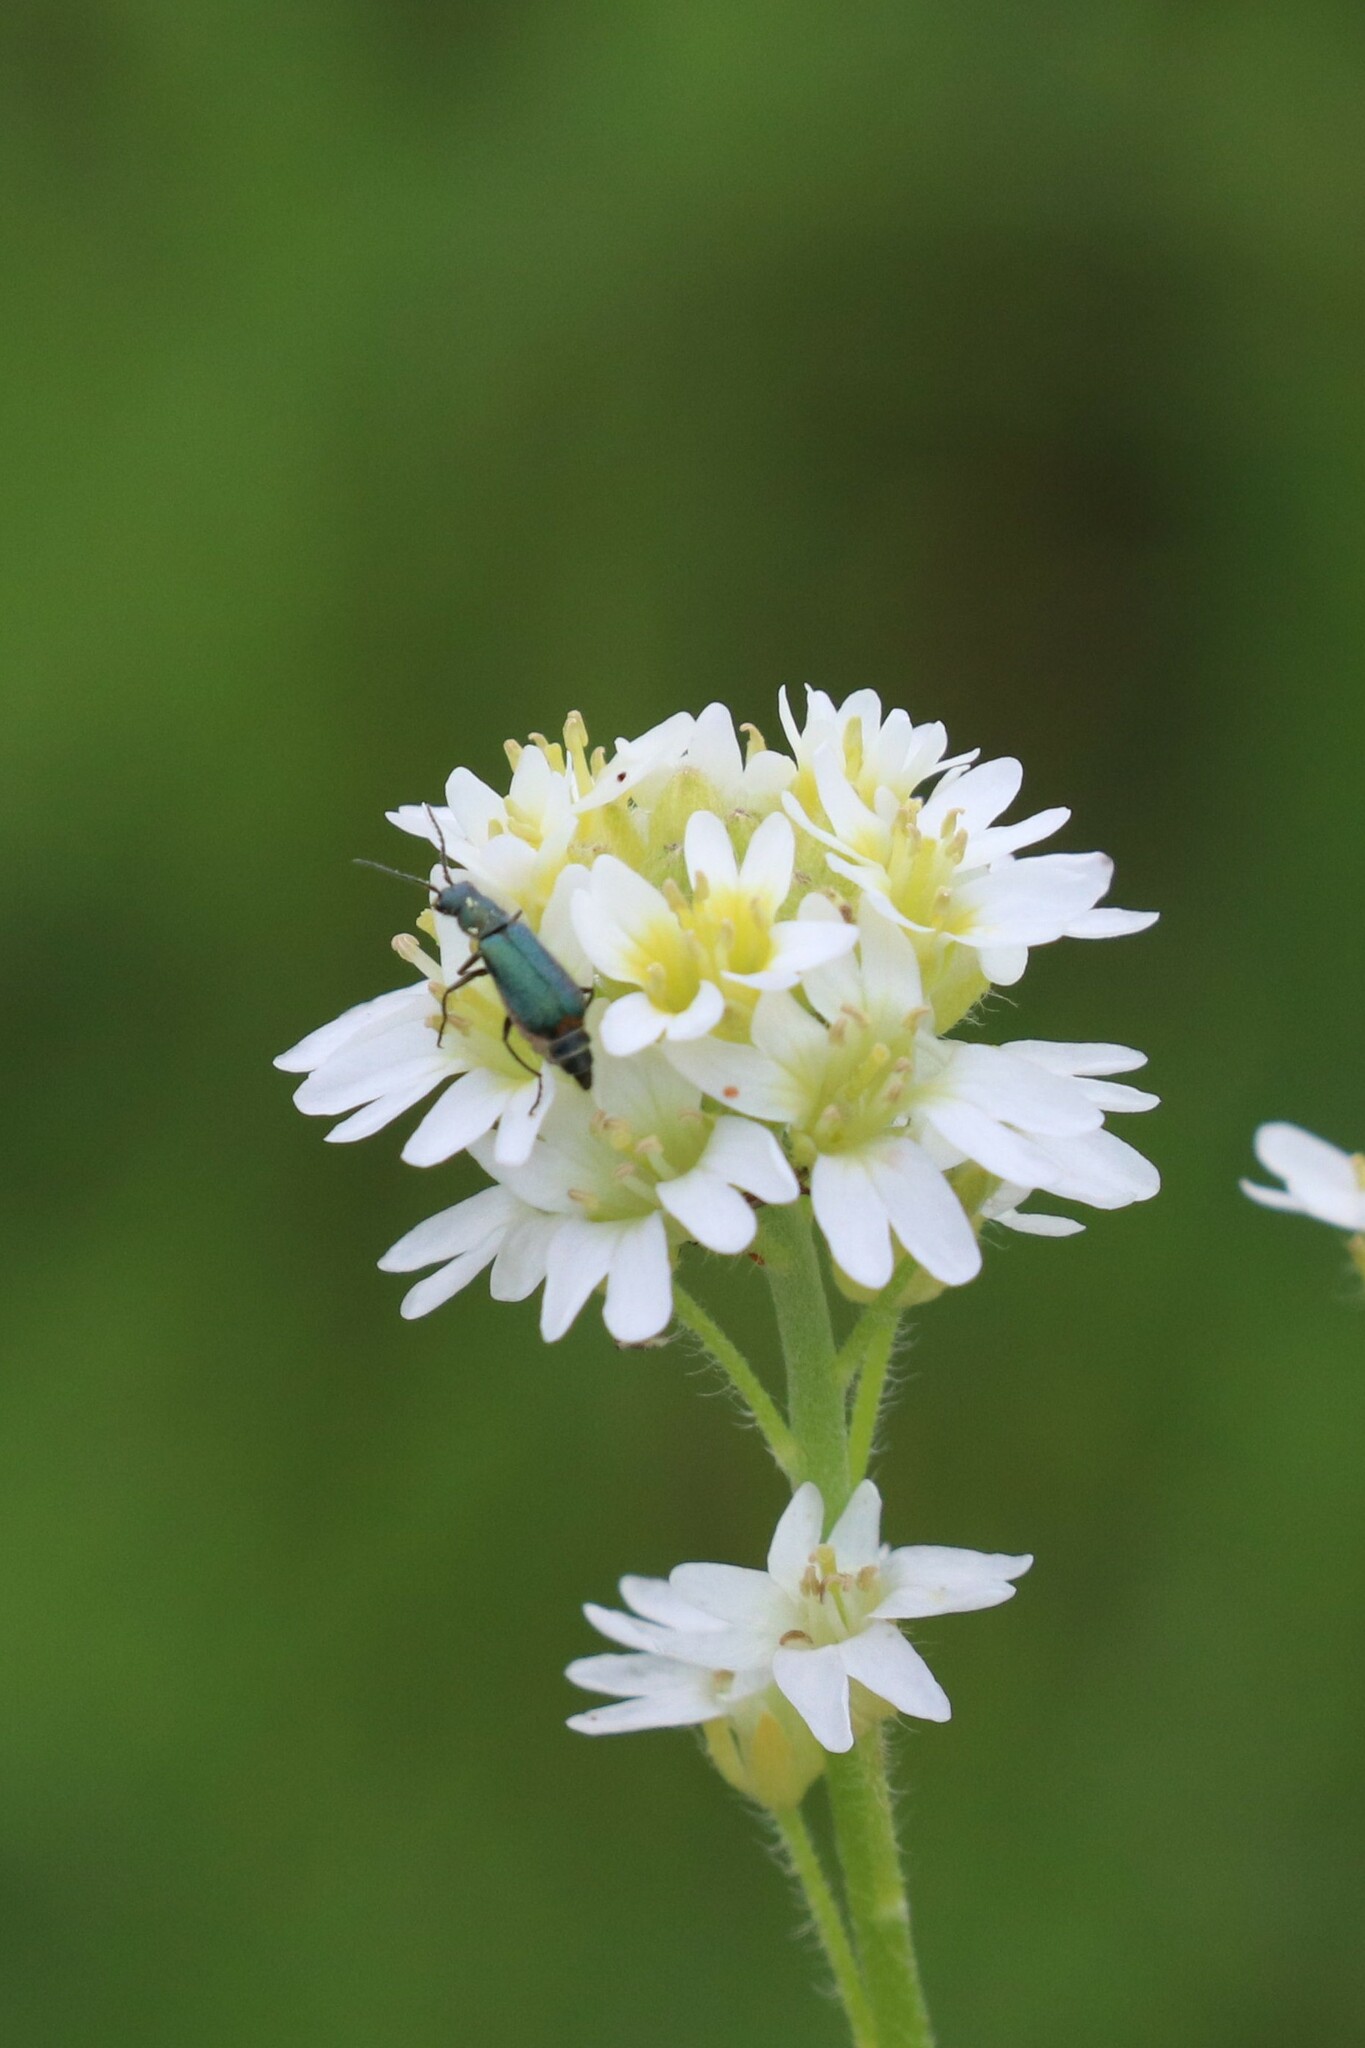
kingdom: Animalia
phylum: Arthropoda
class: Insecta
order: Coleoptera
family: Melyridae
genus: Malachius
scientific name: Malachius bipustulatus
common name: Malachite beetle
